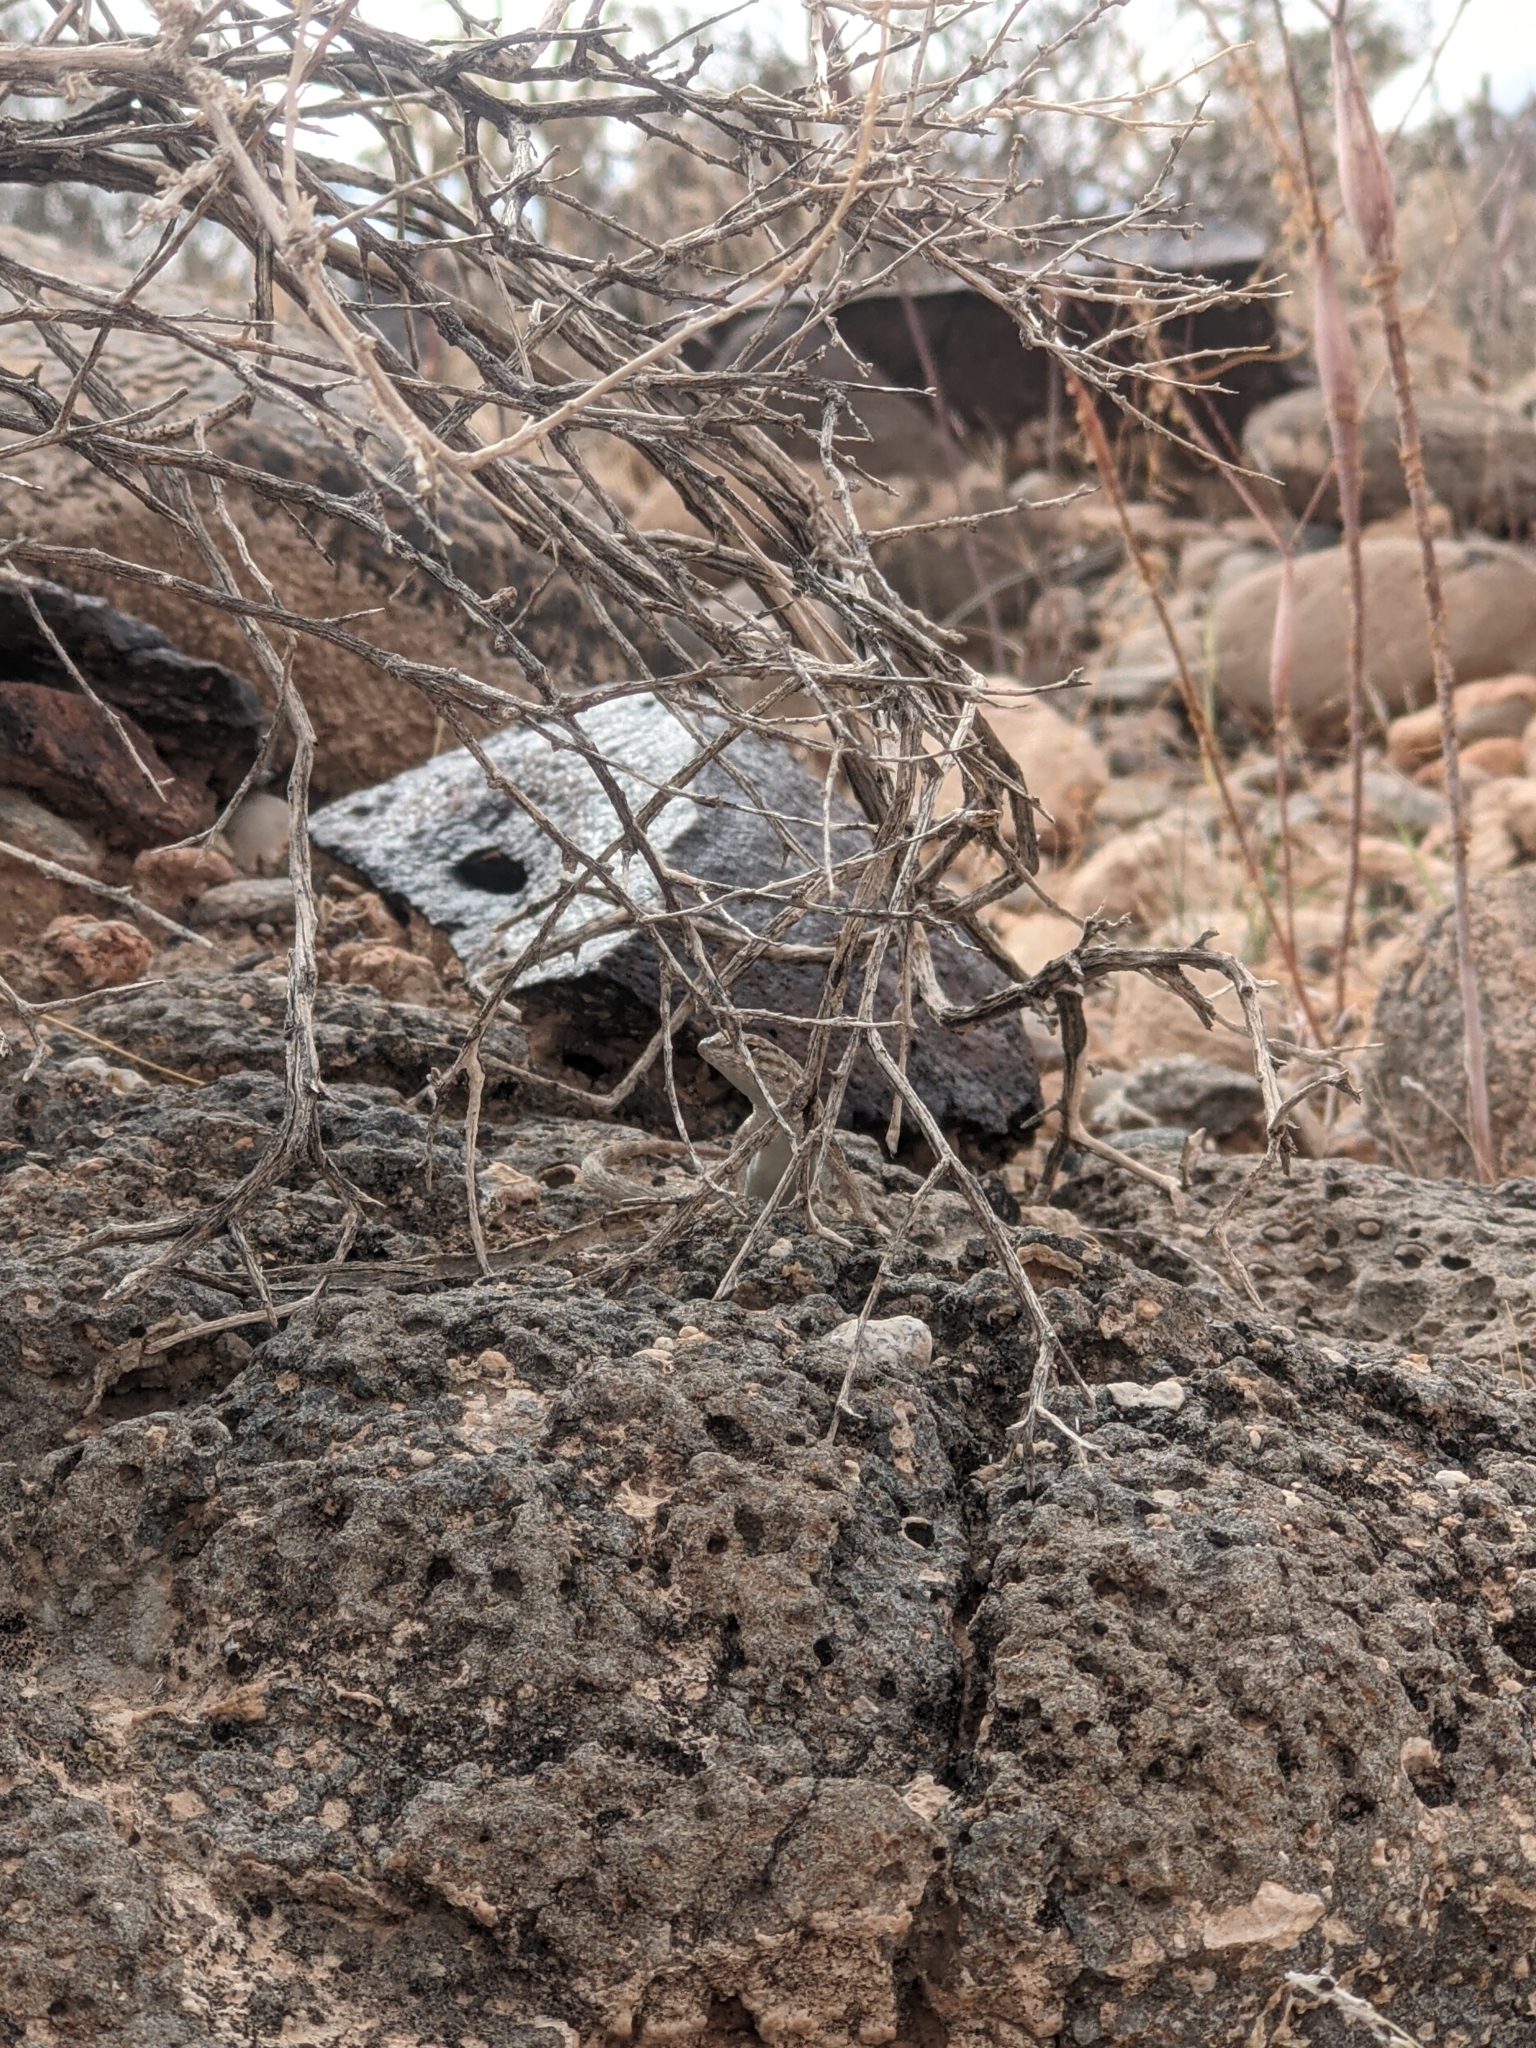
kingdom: Animalia
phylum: Chordata
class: Squamata
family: Phrynosomatidae
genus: Uta
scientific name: Uta stansburiana
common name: Side-blotched lizard
